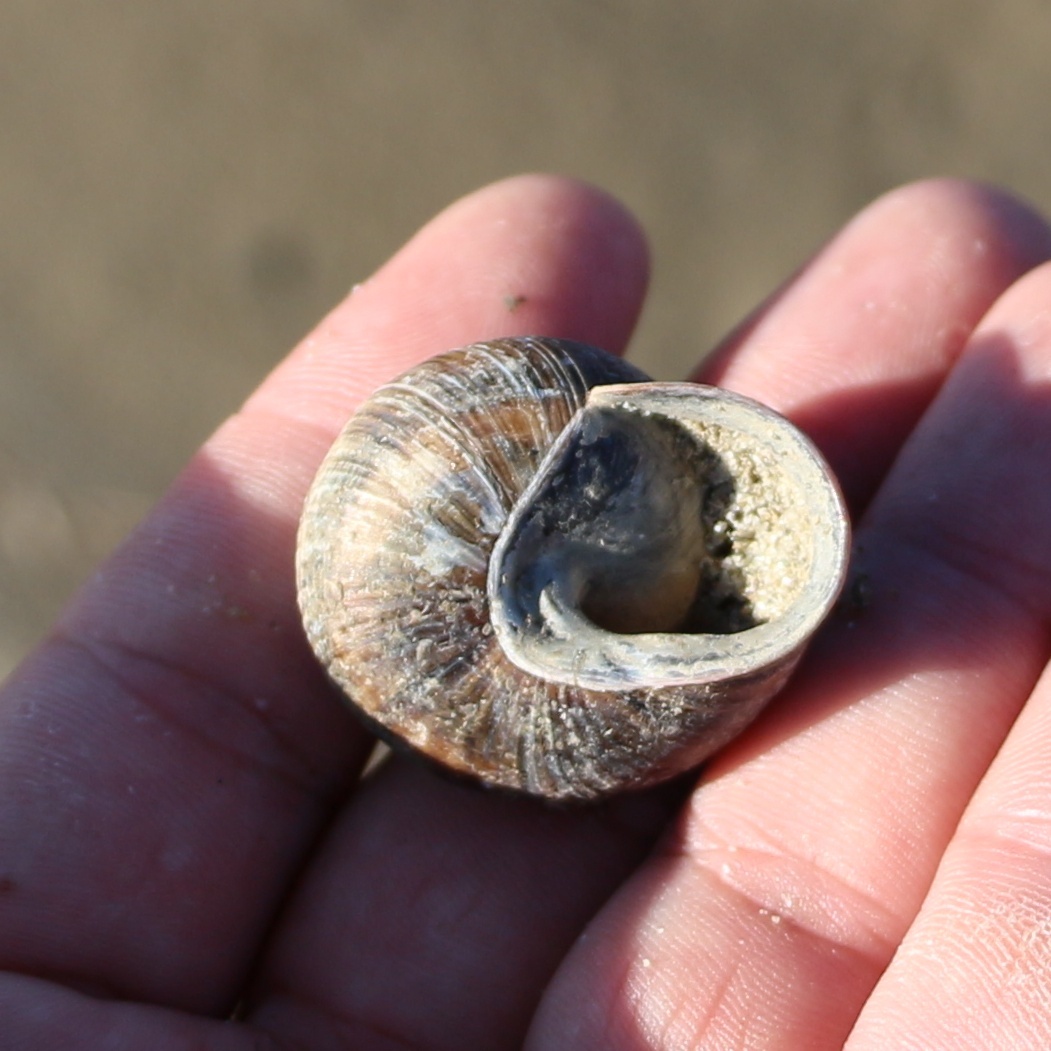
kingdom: Animalia
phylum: Mollusca
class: Gastropoda
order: Stylommatophora
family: Helicidae
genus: Caucasotachea
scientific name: Caucasotachea atrolabiata
